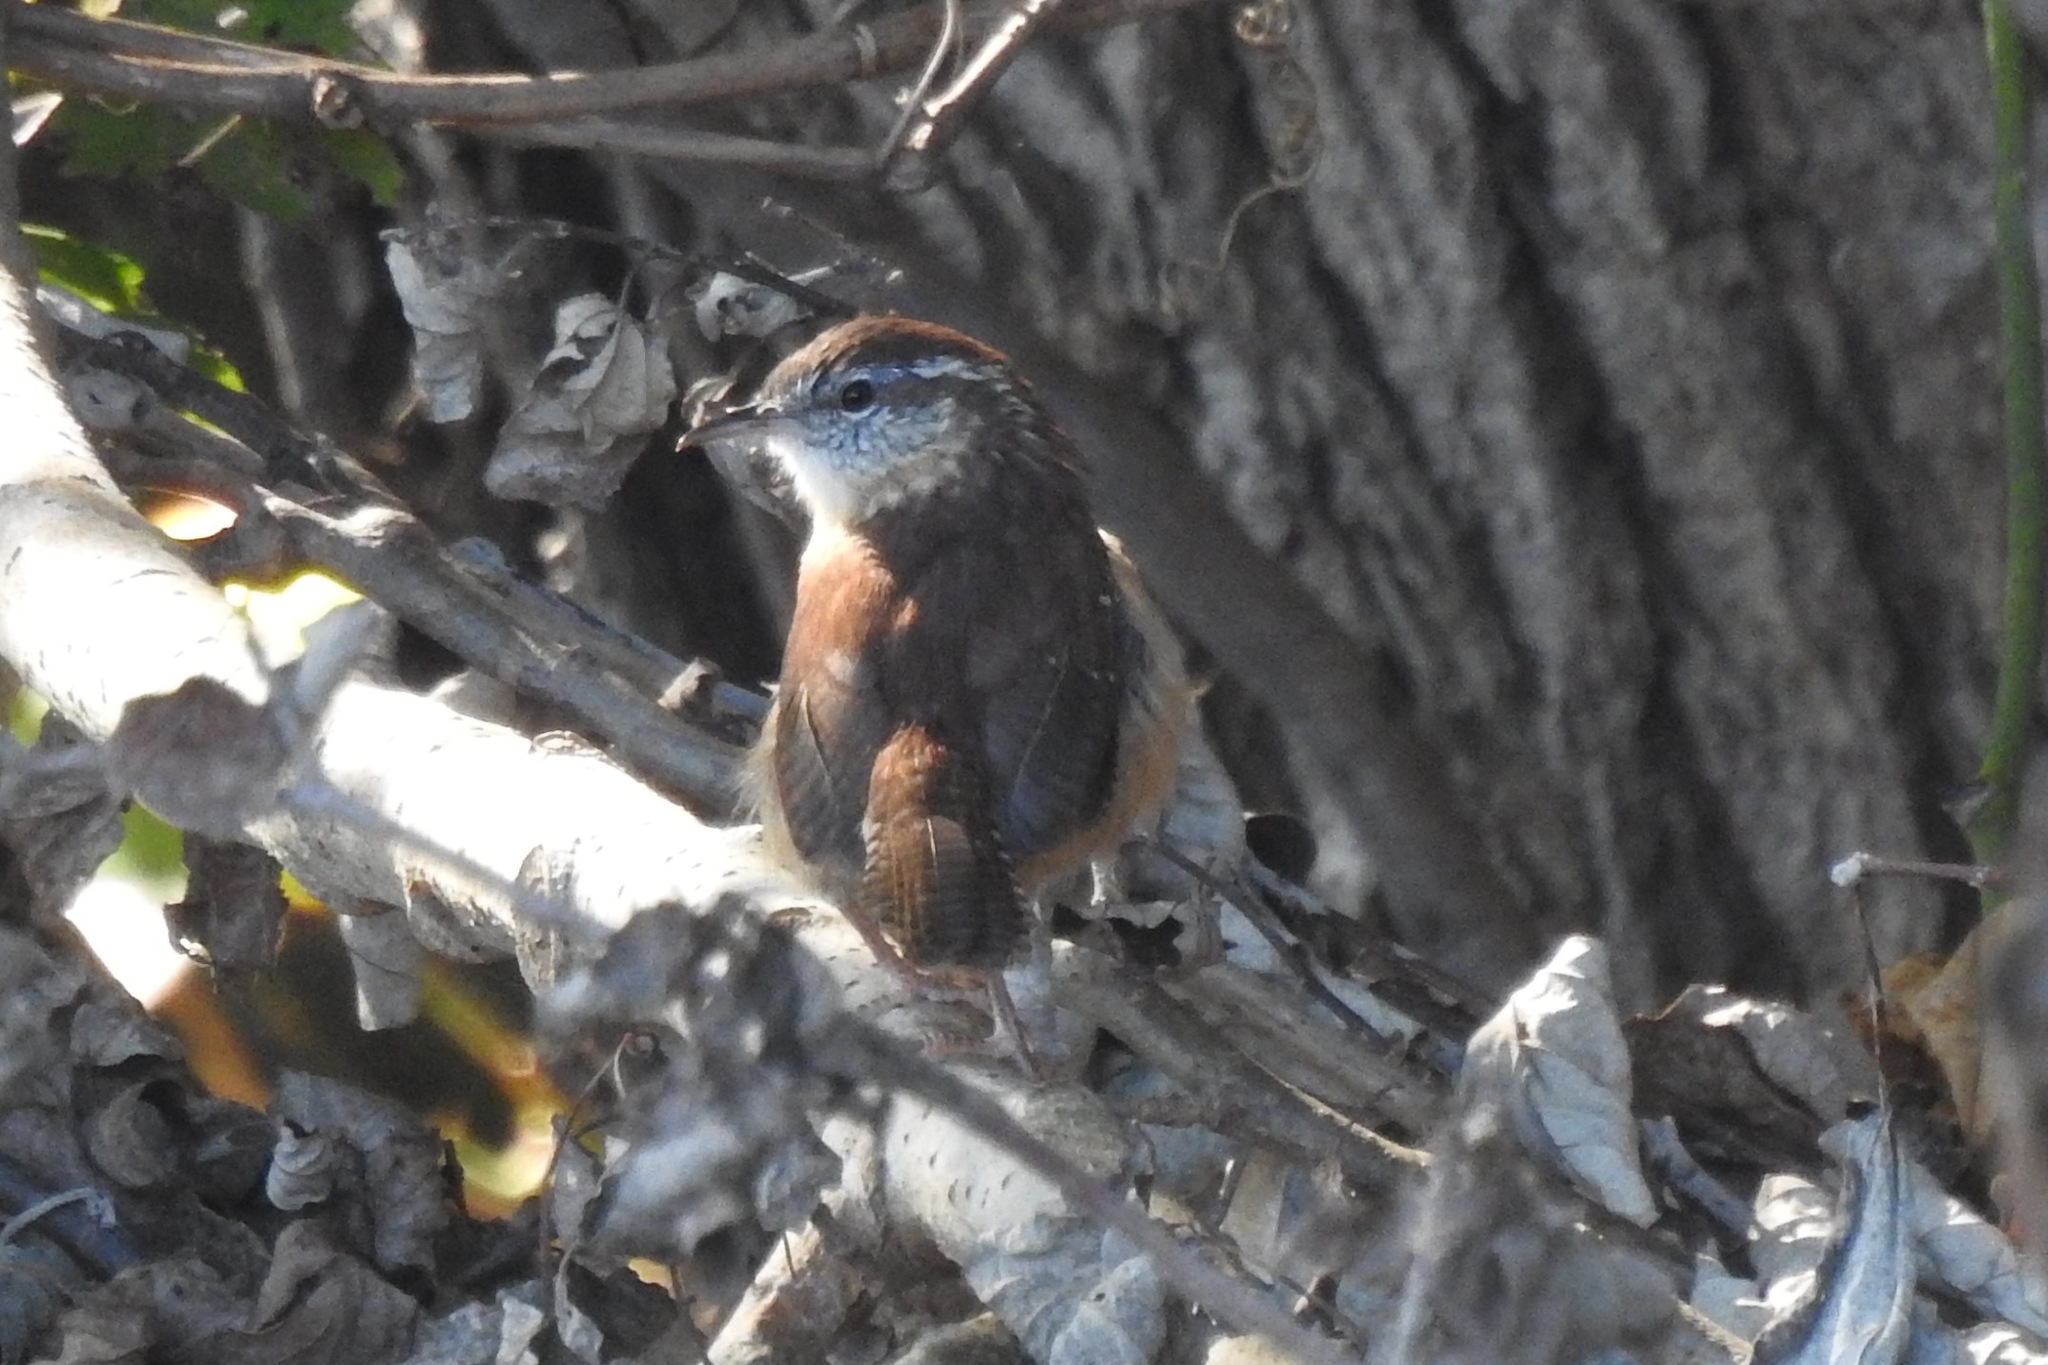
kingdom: Animalia
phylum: Chordata
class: Aves
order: Passeriformes
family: Troglodytidae
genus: Thryothorus
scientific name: Thryothorus ludovicianus
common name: Carolina wren
